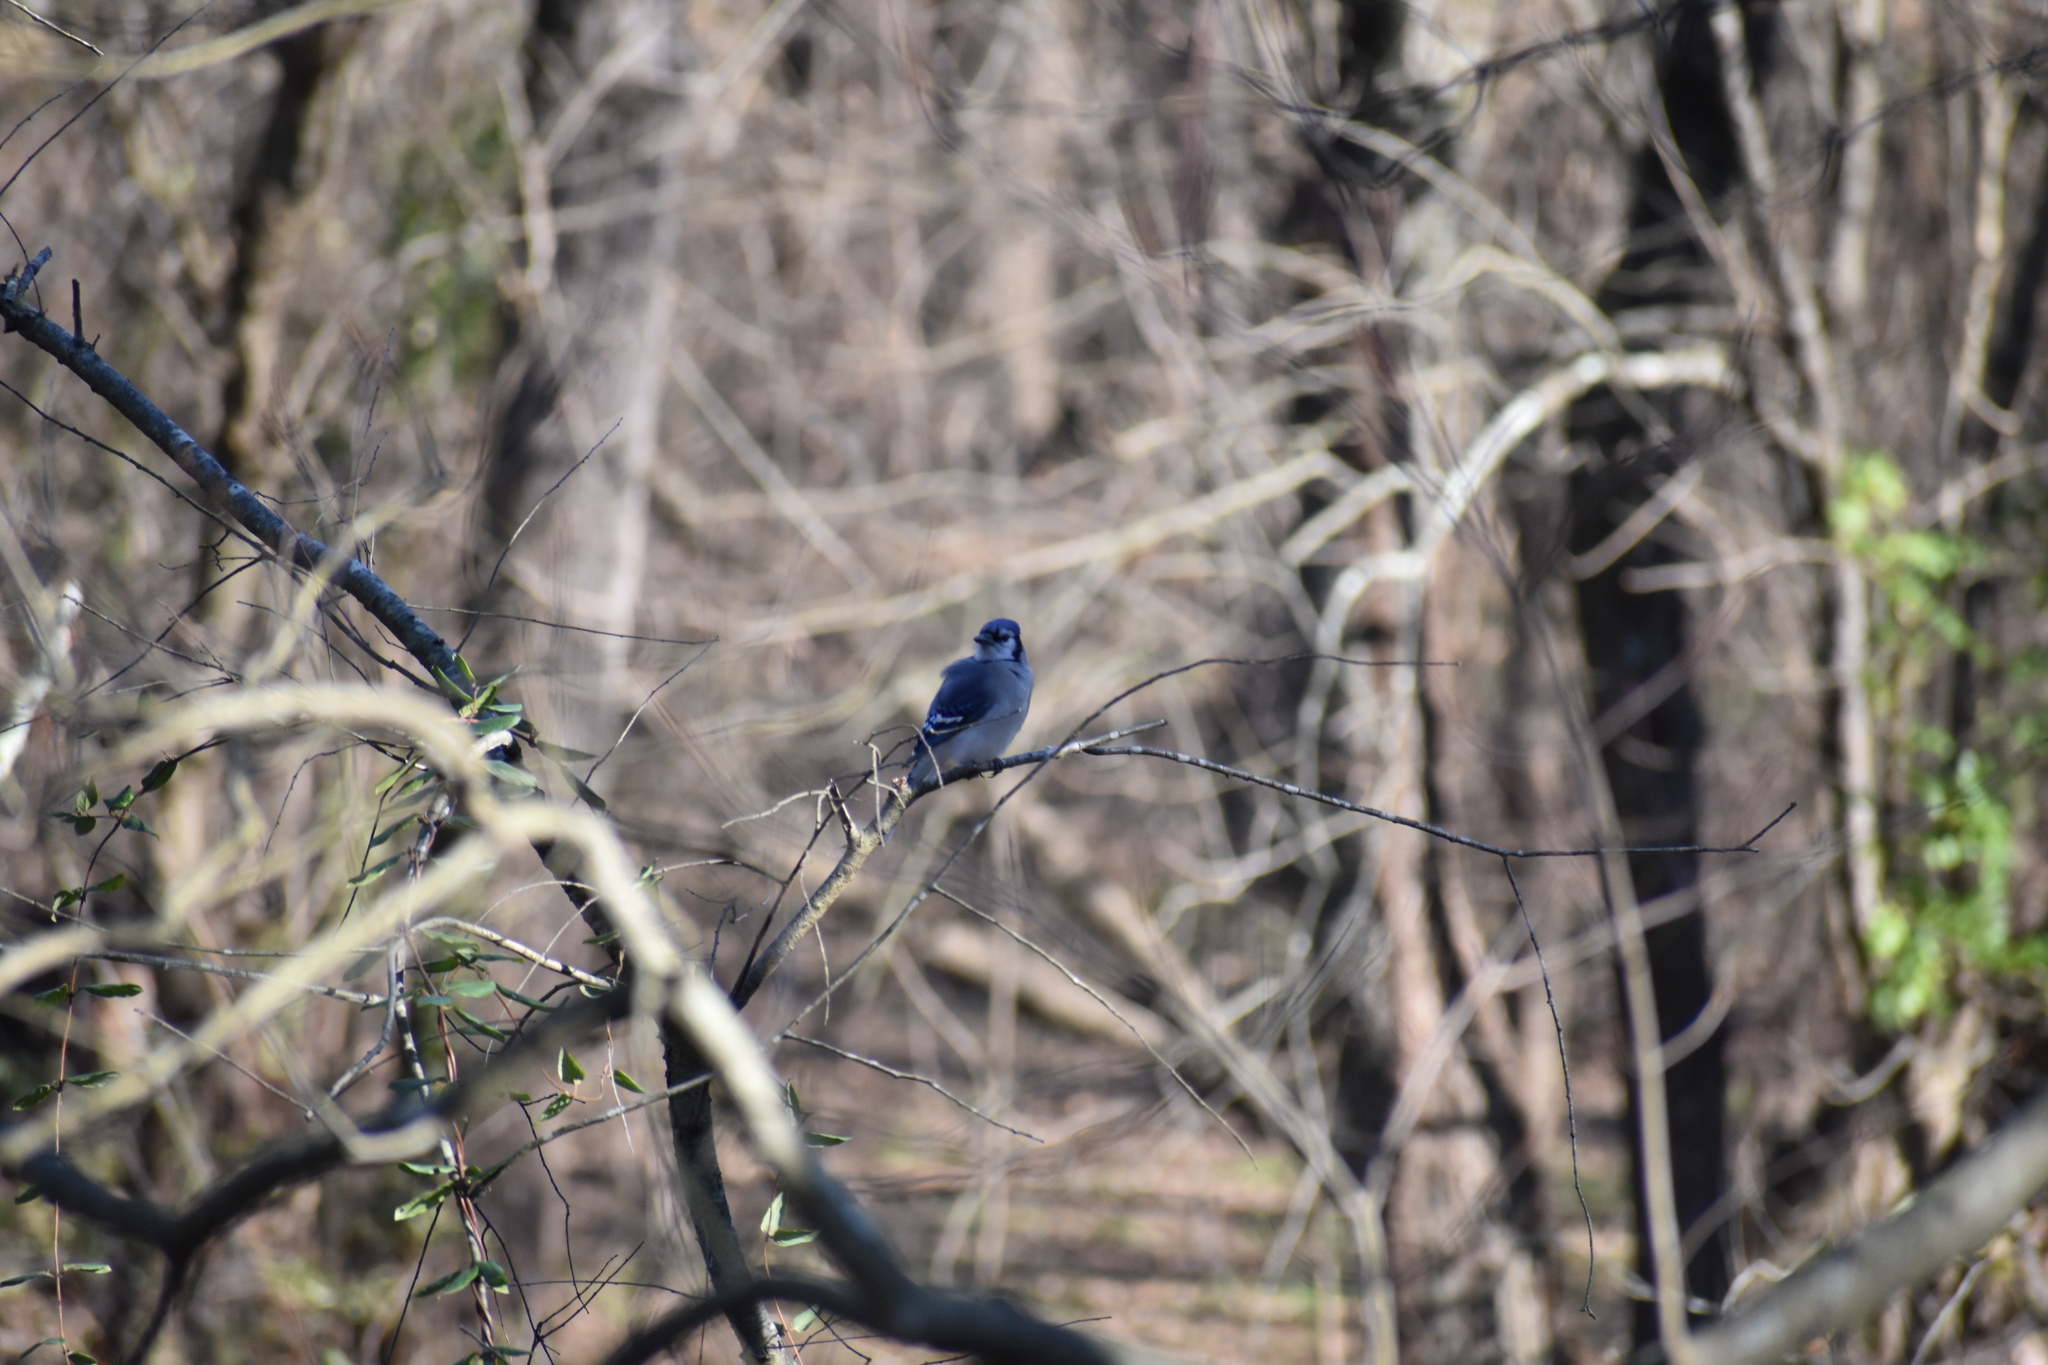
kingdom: Animalia
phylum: Chordata
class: Aves
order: Passeriformes
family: Corvidae
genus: Cyanocitta
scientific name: Cyanocitta cristata
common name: Blue jay
